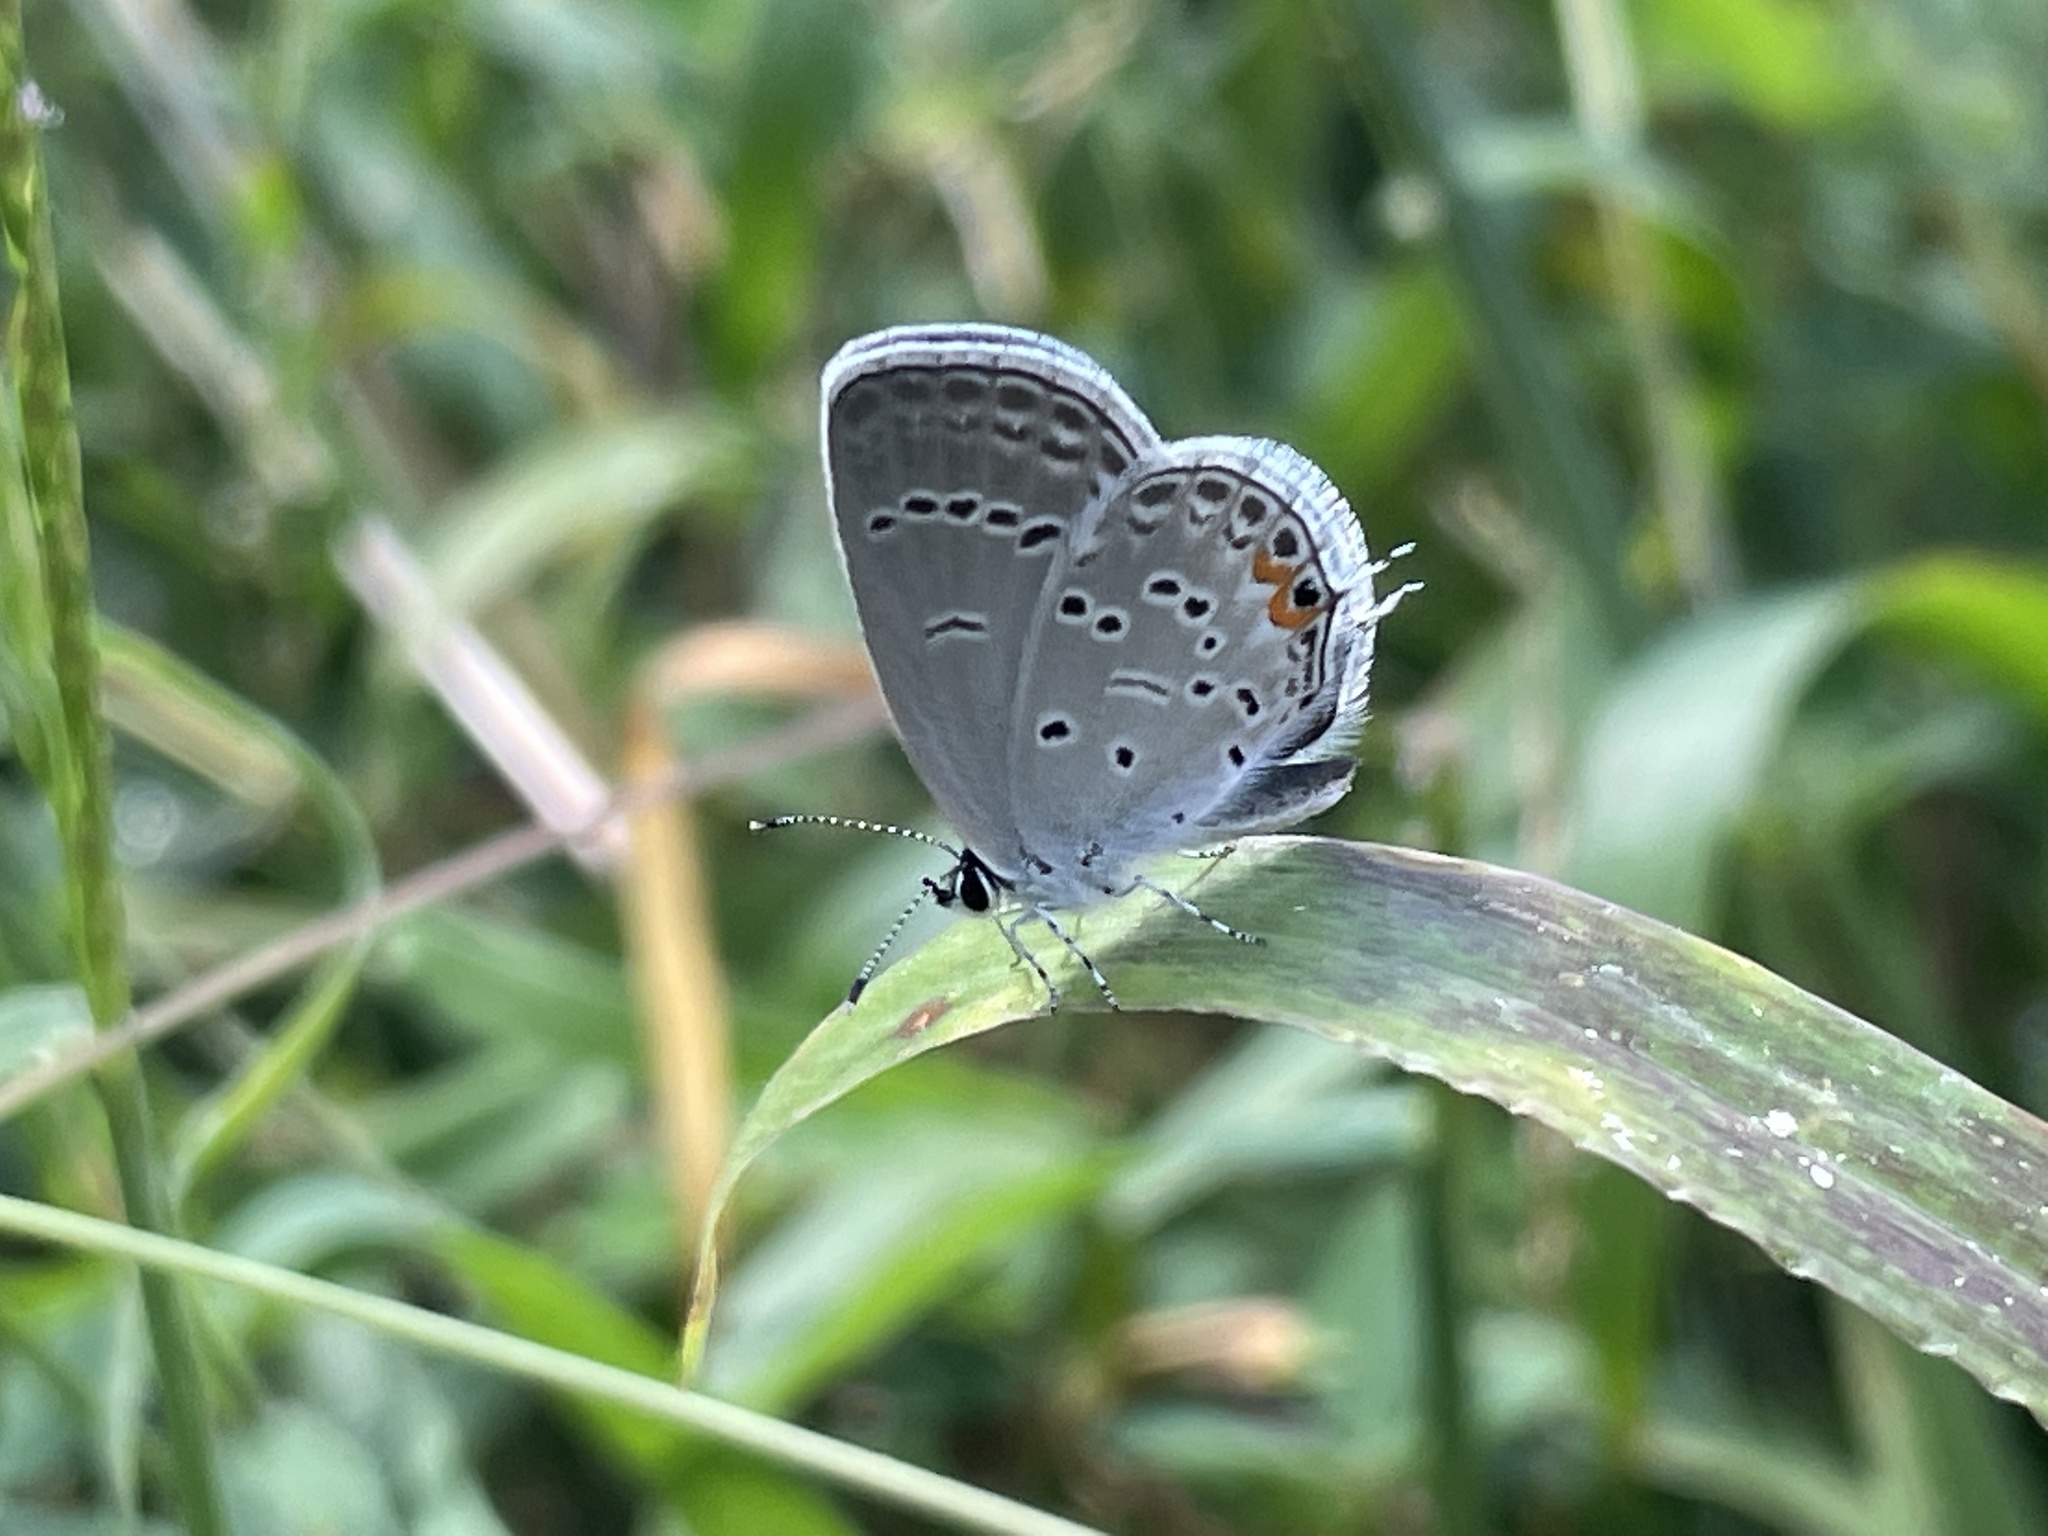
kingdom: Animalia
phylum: Arthropoda
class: Insecta
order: Lepidoptera
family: Lycaenidae
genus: Elkalyce
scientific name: Elkalyce comyntas
